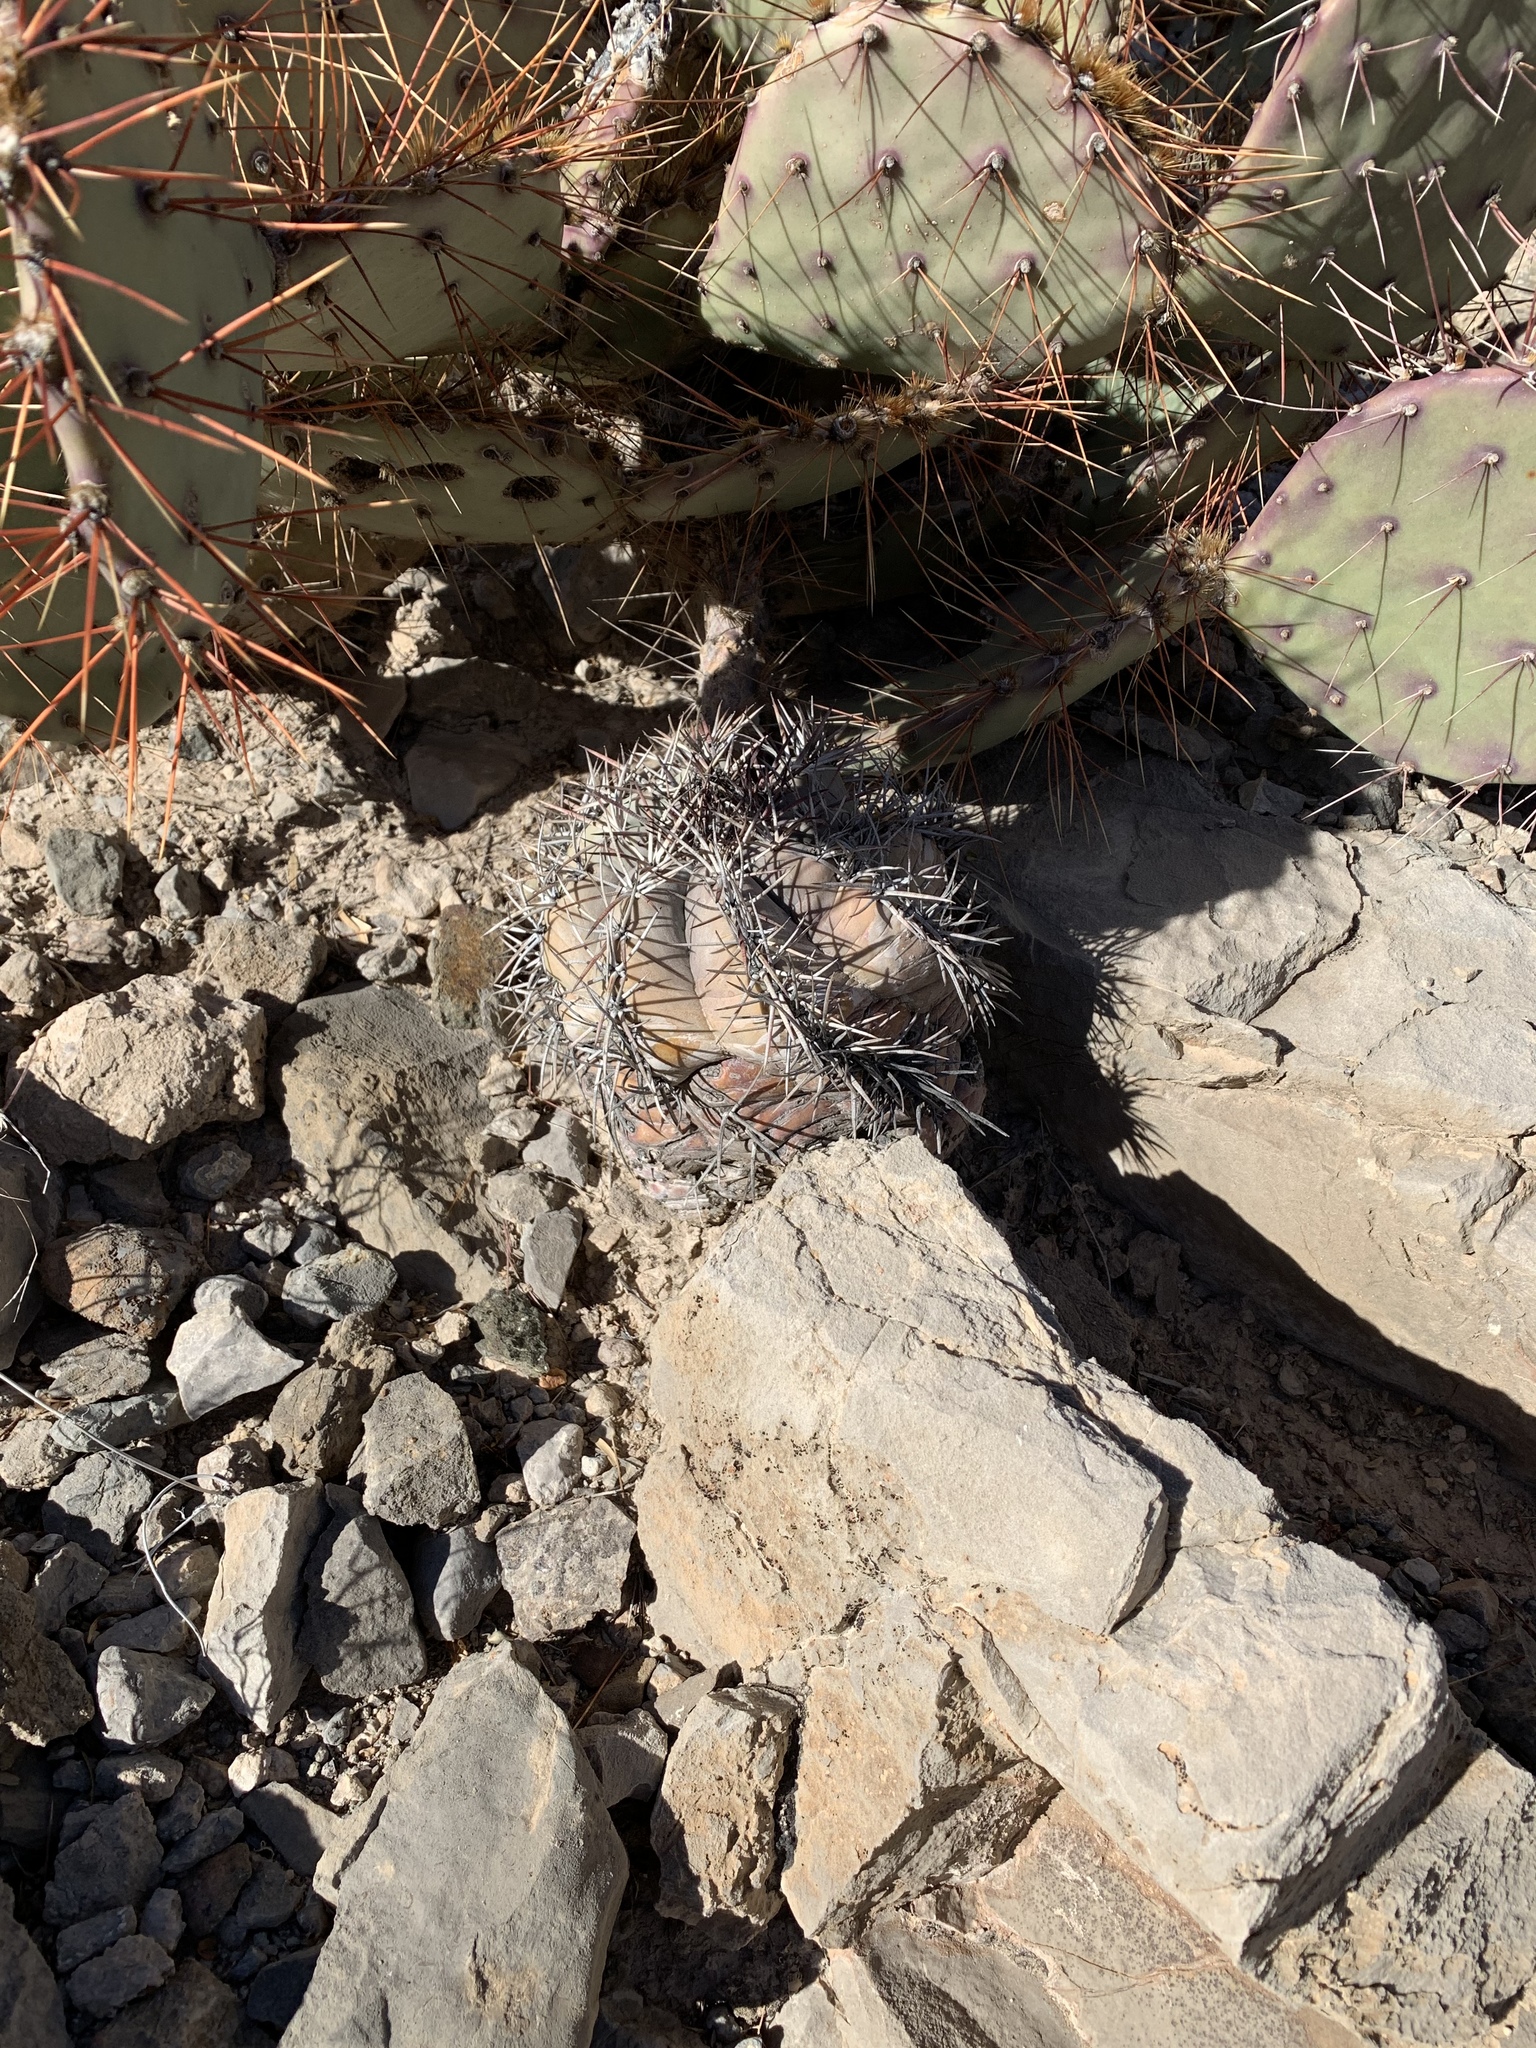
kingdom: Plantae
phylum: Tracheophyta
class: Magnoliopsida
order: Caryophyllales
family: Cactaceae
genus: Echinocactus
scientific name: Echinocactus horizonthalonius
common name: Devilshead
